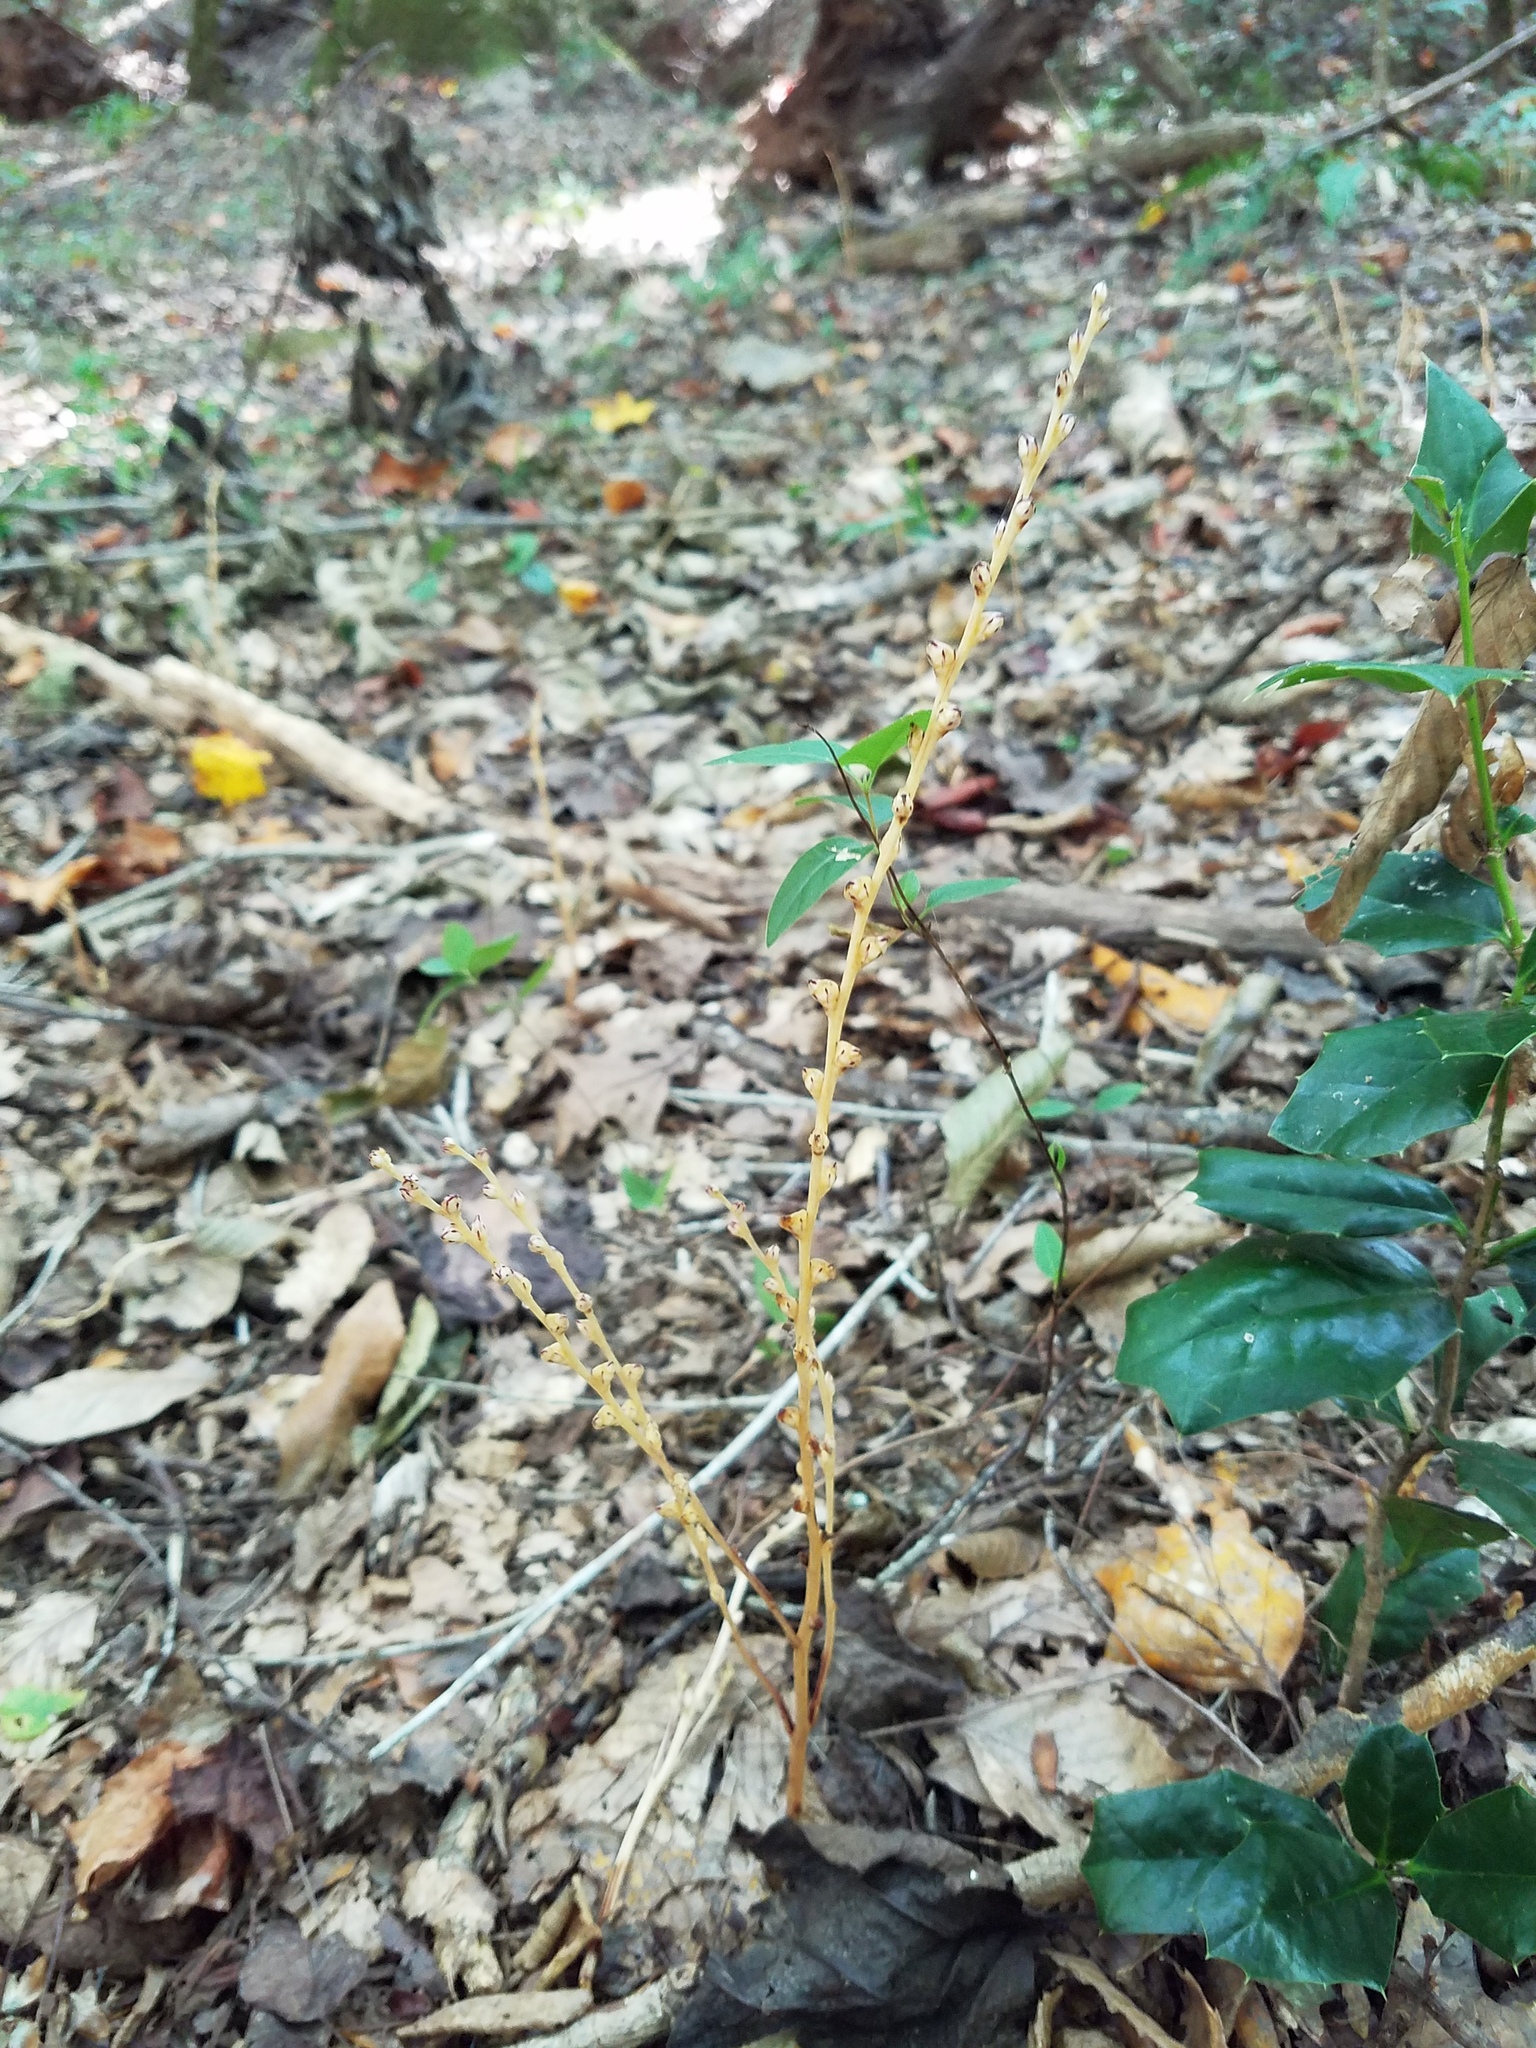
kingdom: Plantae
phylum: Tracheophyta
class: Magnoliopsida
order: Lamiales
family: Orobanchaceae
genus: Epifagus
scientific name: Epifagus virginiana
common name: Beechdrops
